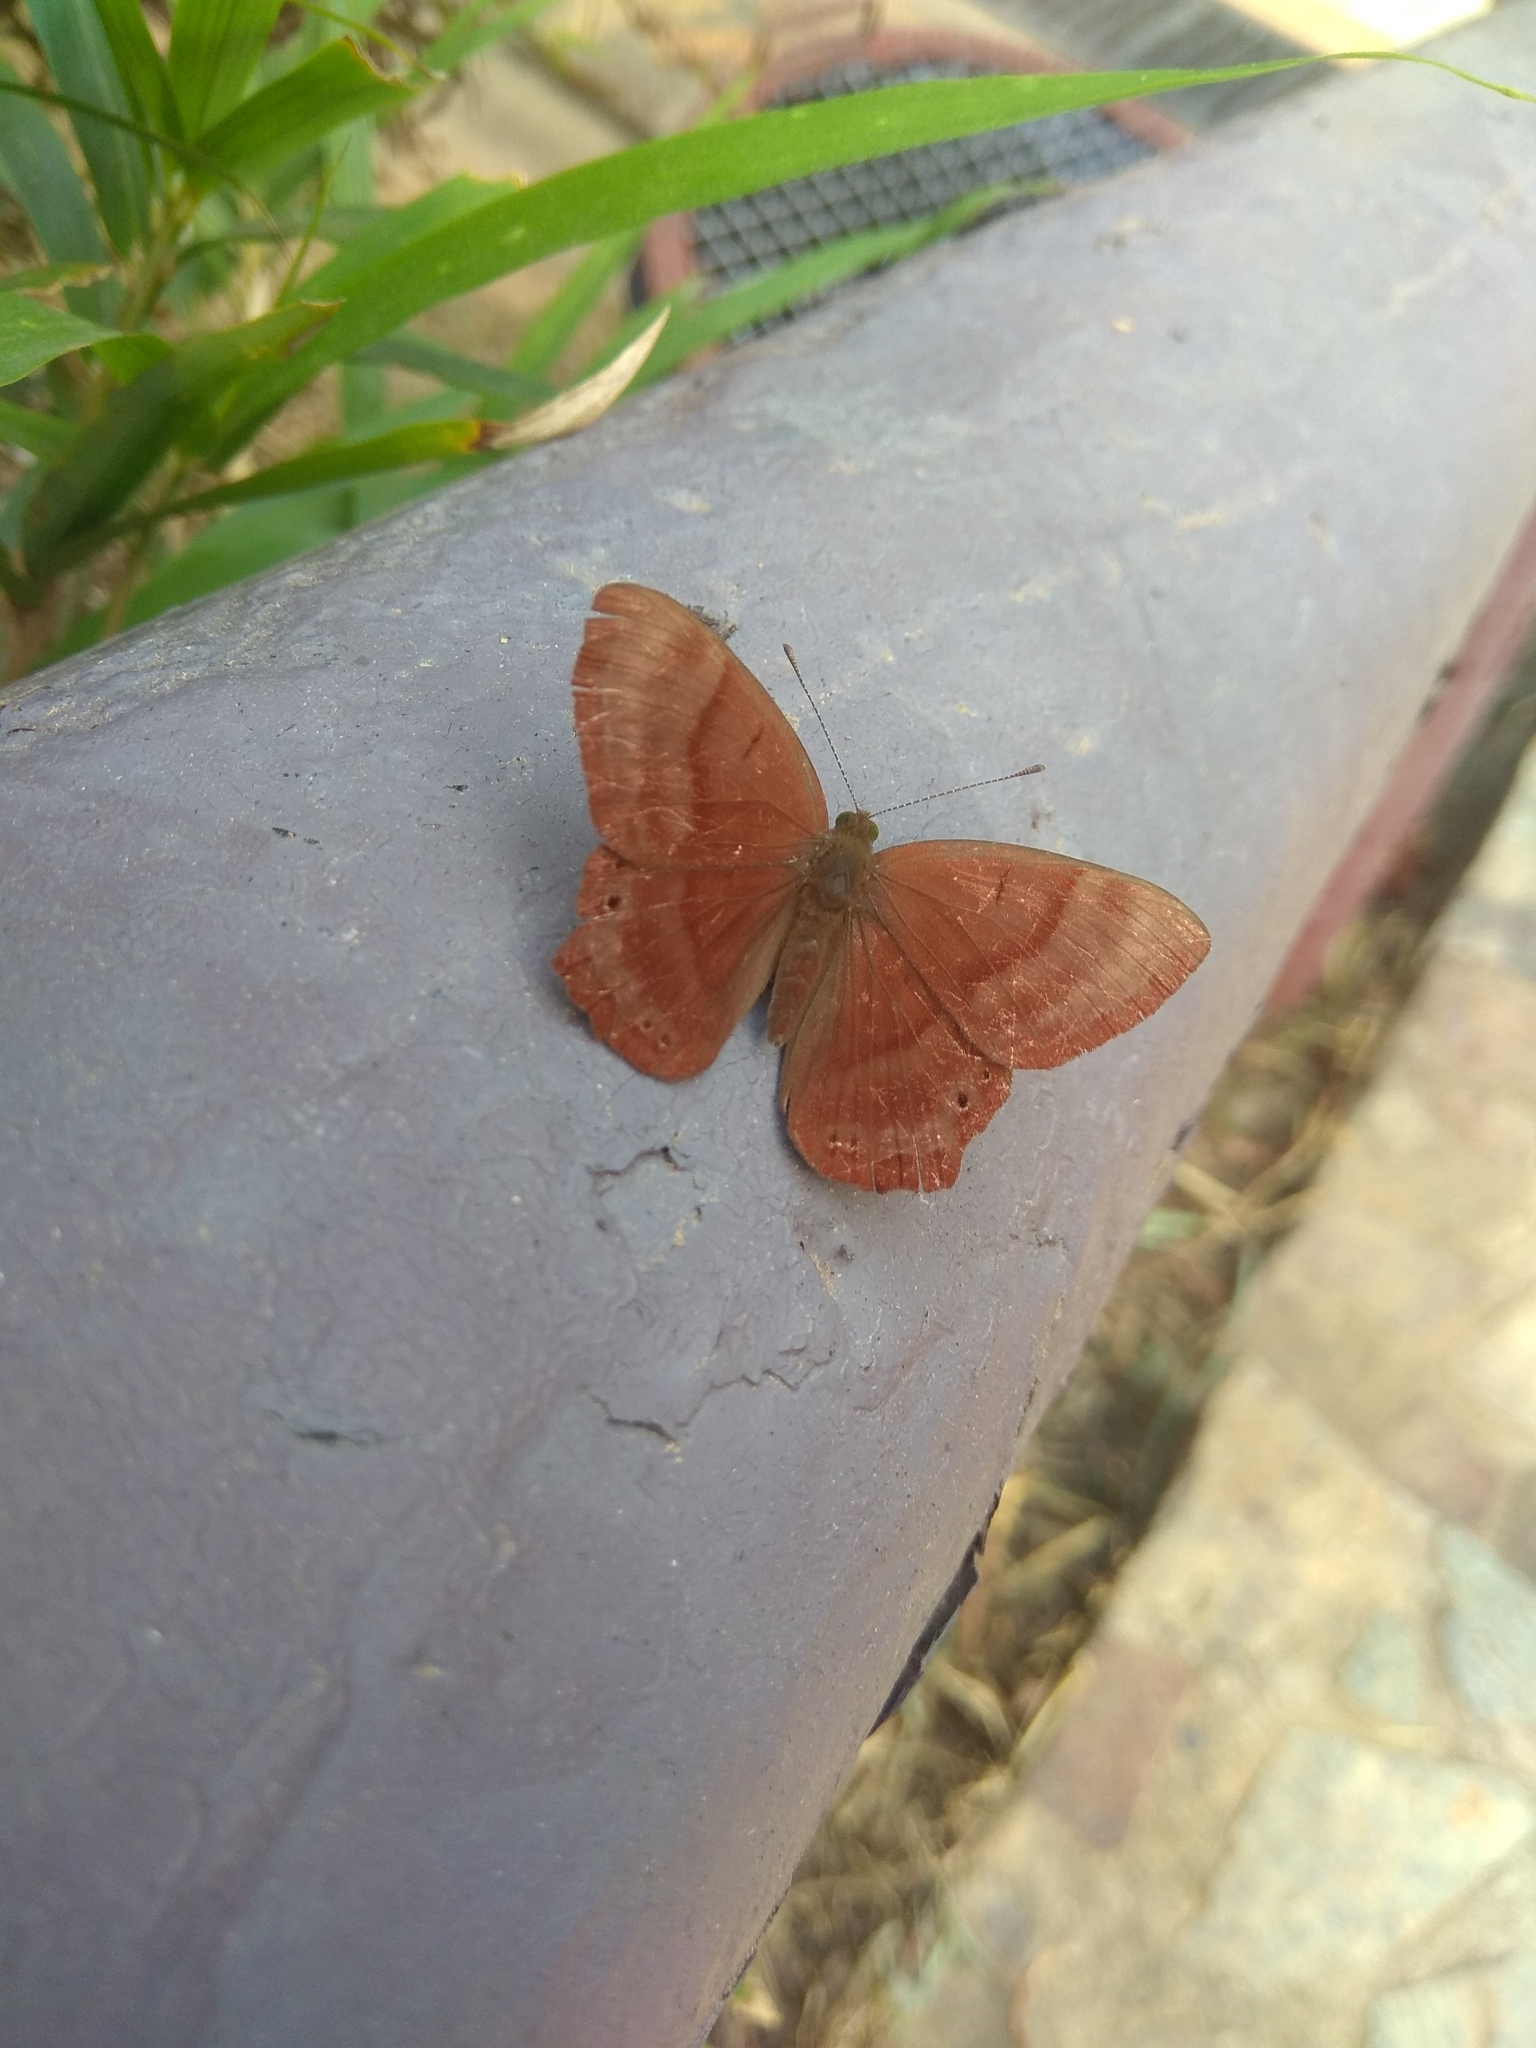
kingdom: Animalia
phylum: Arthropoda
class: Insecta
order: Lepidoptera
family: Lycaenidae
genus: Abisara
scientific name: Abisara echeria
